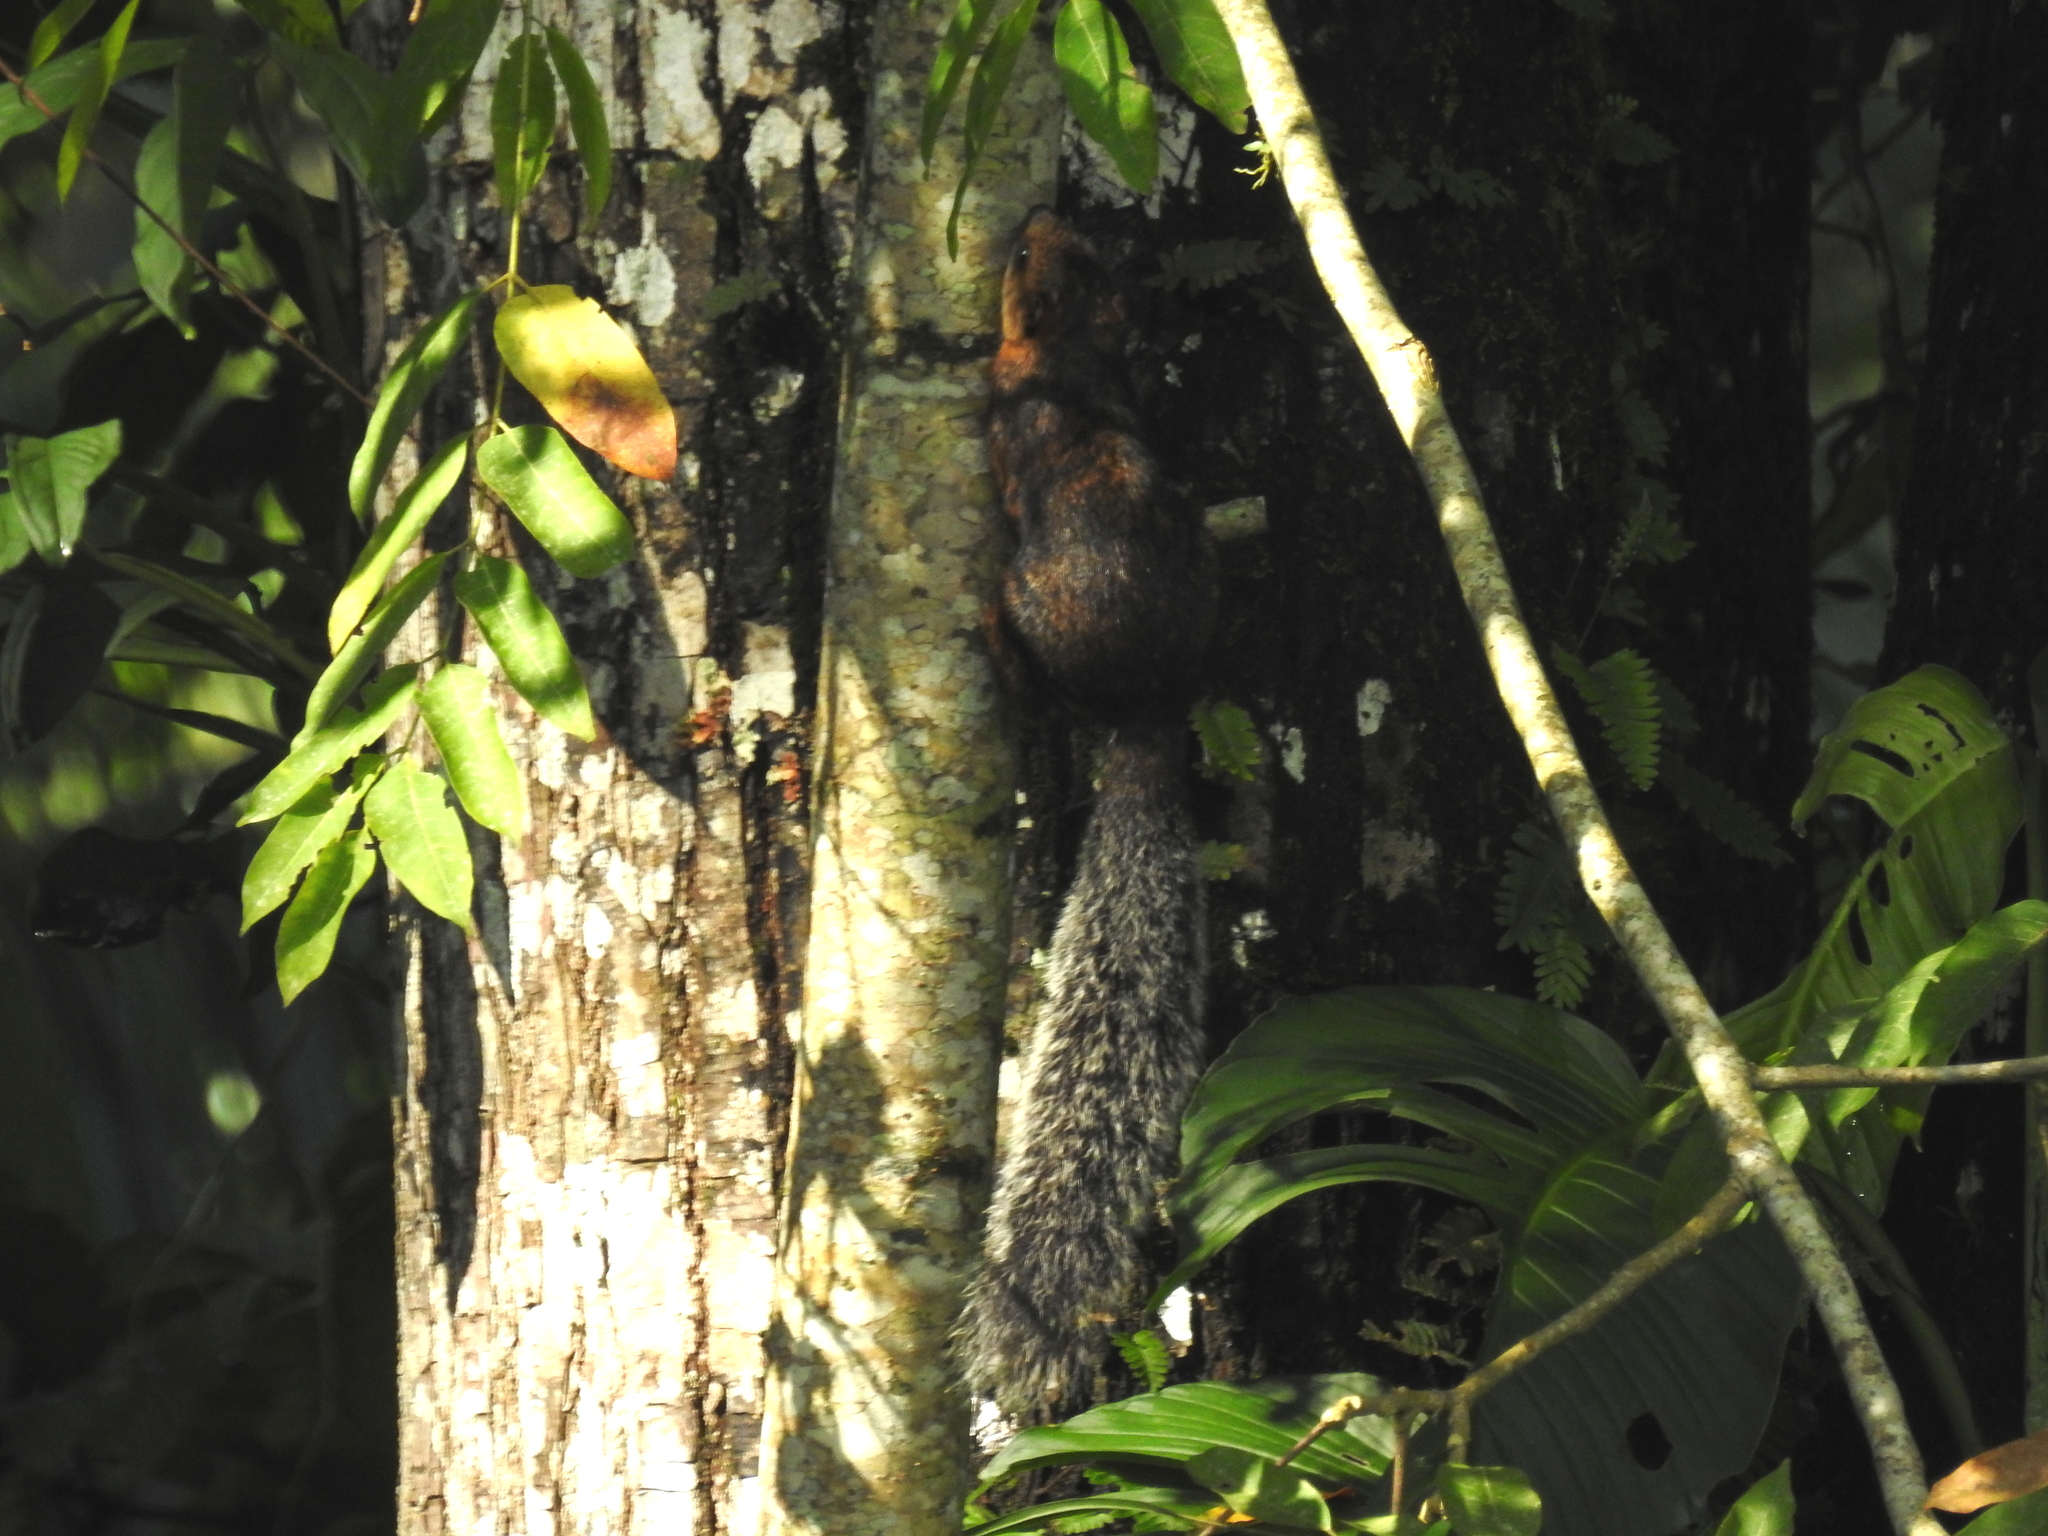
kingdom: Animalia
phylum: Chordata
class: Mammalia
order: Rodentia
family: Sciuridae
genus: Sciurus
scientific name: Sciurus variegatoides
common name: Variegated squirrel
